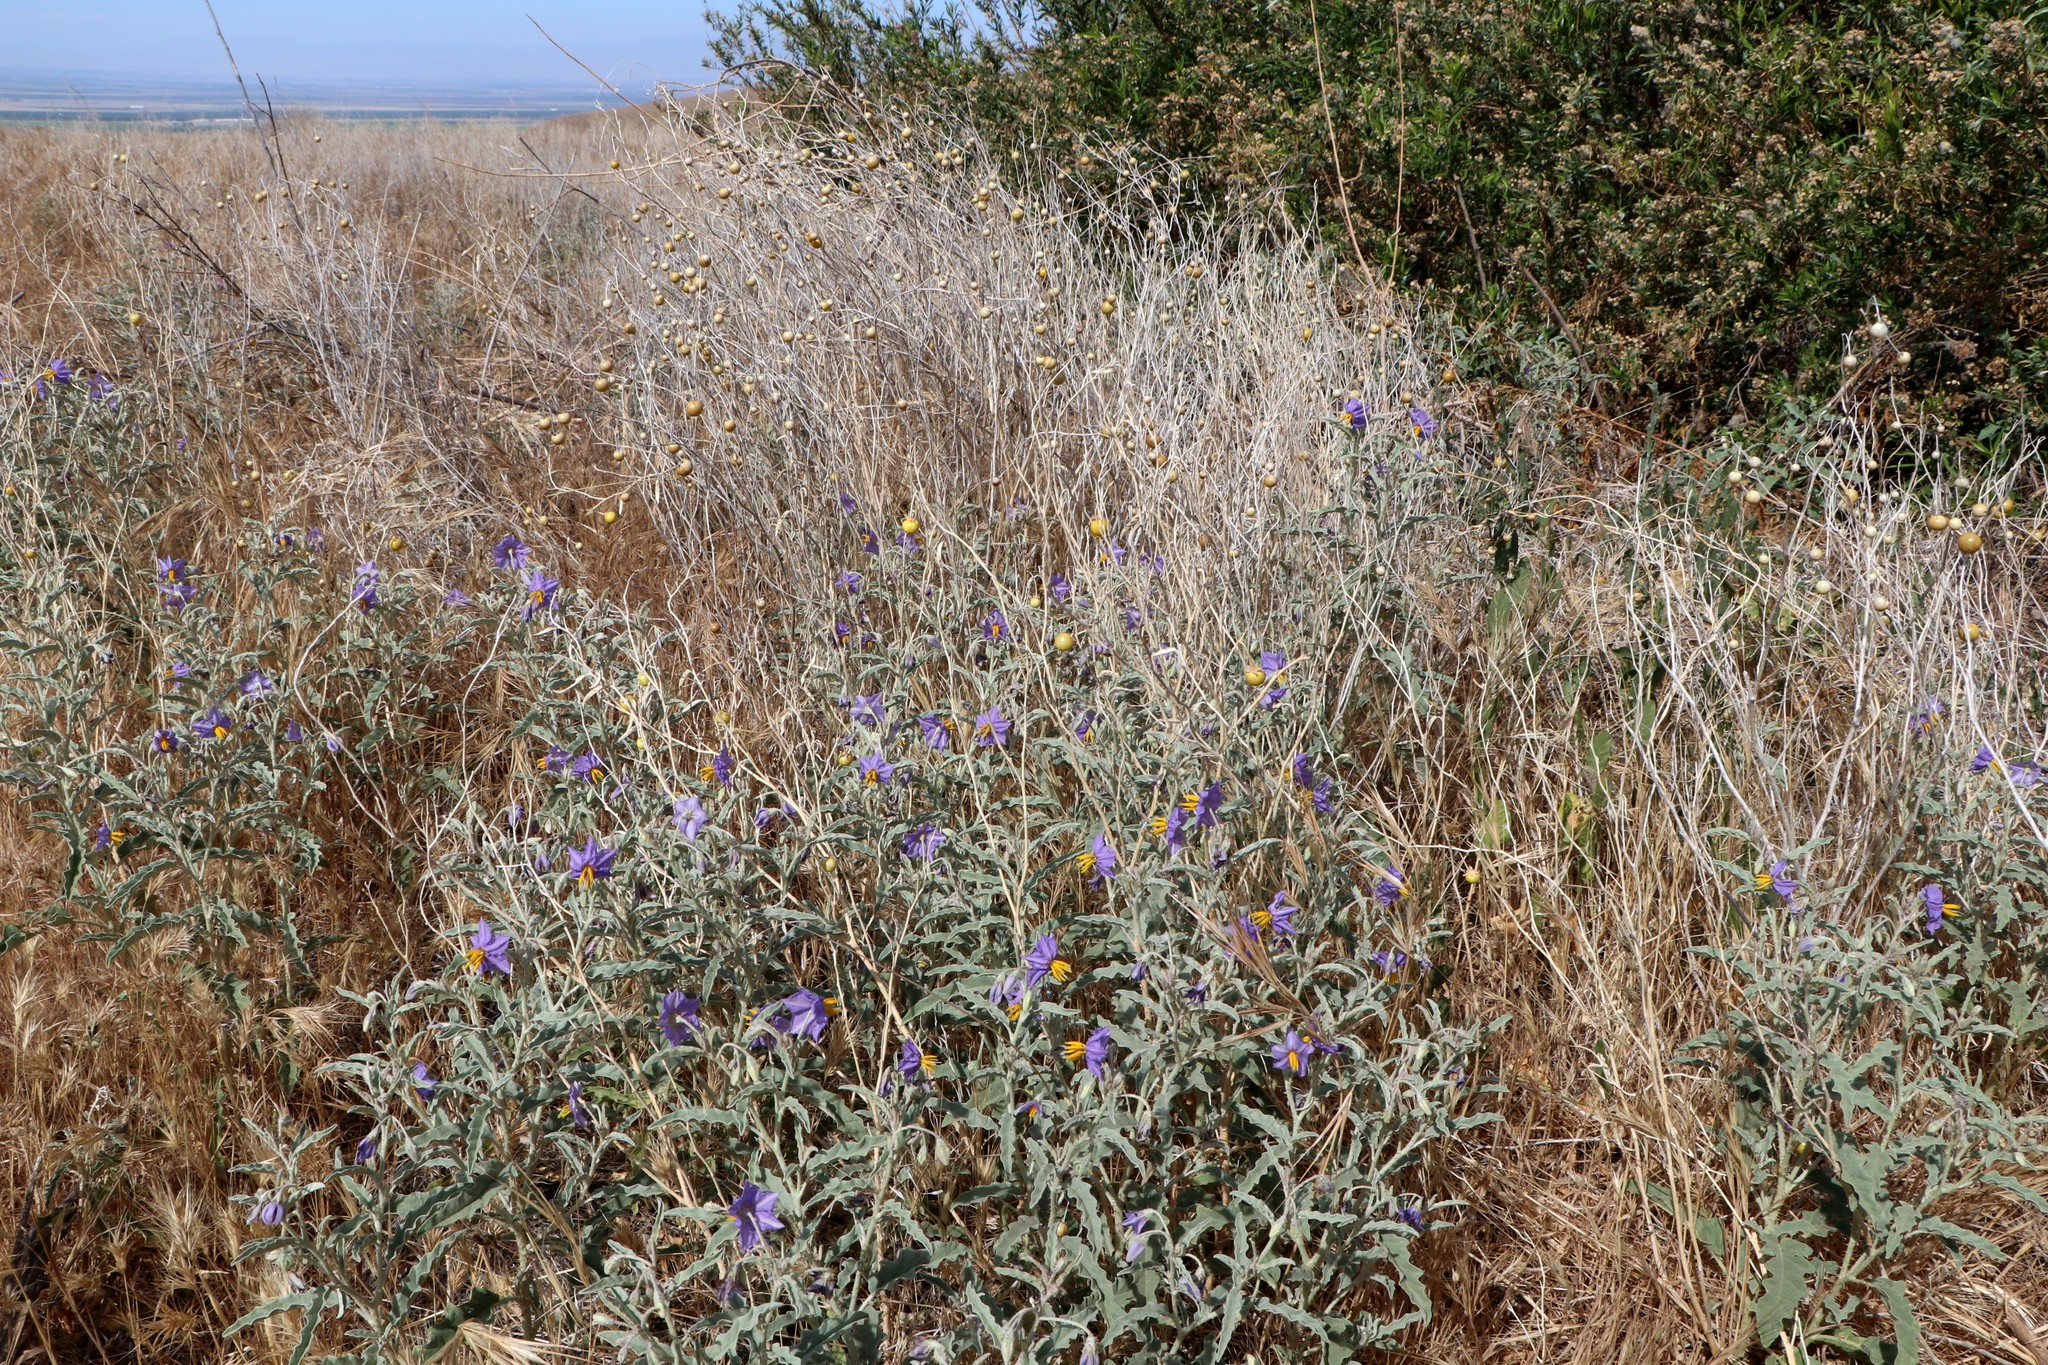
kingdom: Plantae
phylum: Tracheophyta
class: Magnoliopsida
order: Solanales
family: Solanaceae
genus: Solanum
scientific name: Solanum elaeagnifolium
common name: Silverleaf nightshade
